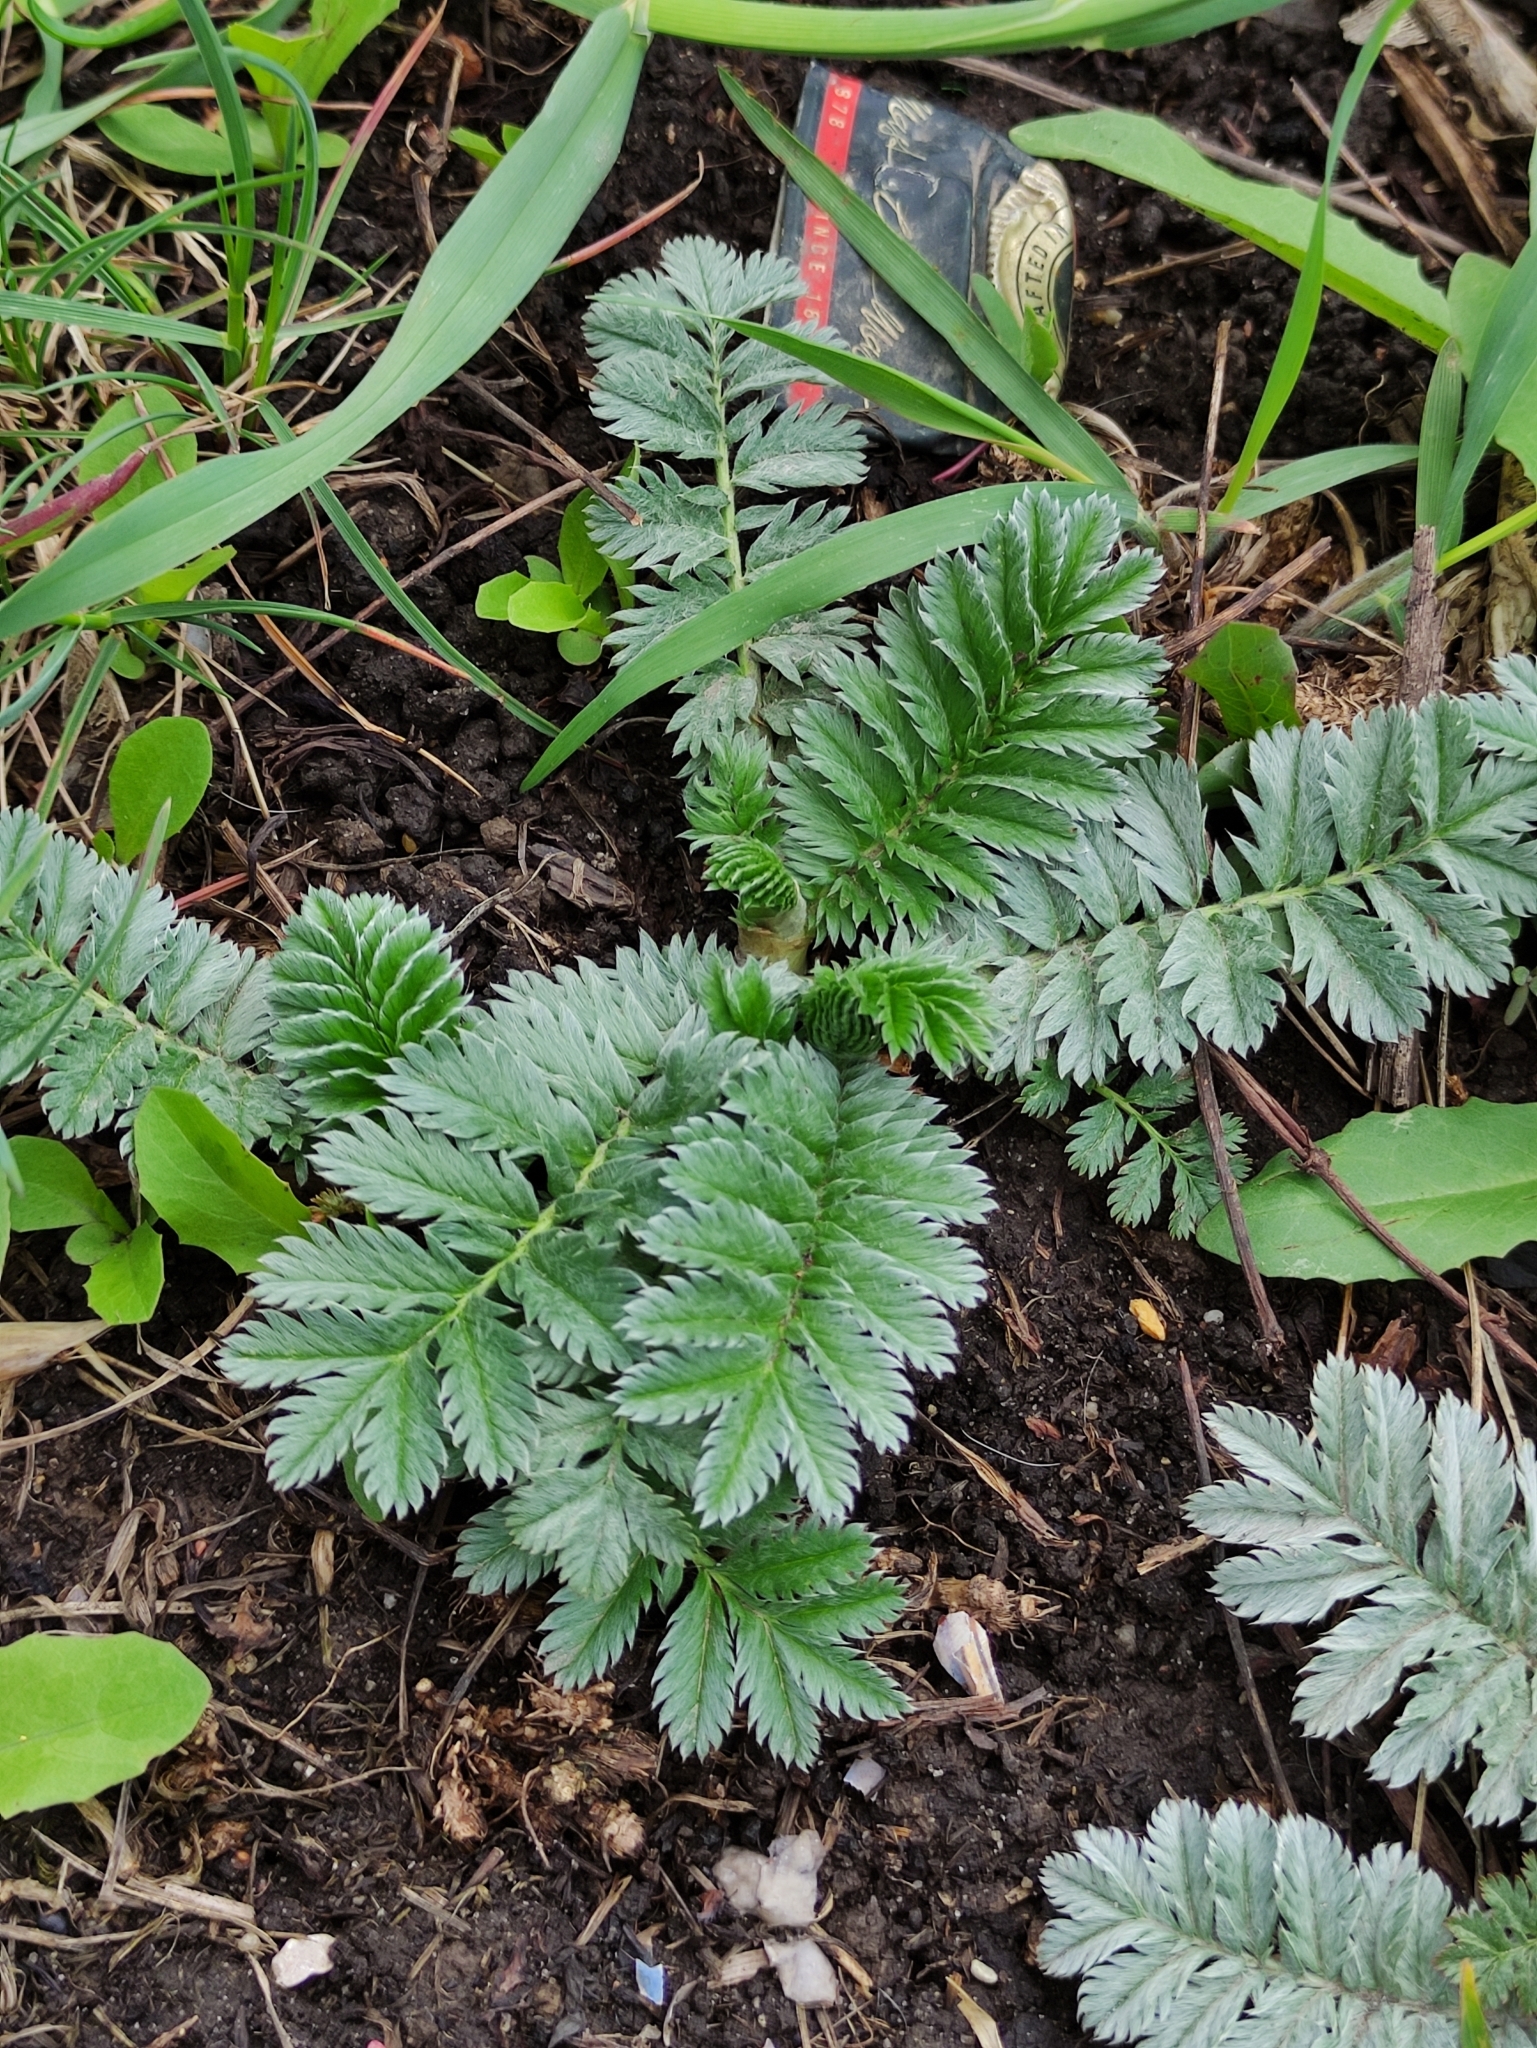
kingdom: Plantae
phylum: Tracheophyta
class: Magnoliopsida
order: Rosales
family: Rosaceae
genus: Argentina
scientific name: Argentina anserina
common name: Common silverweed
